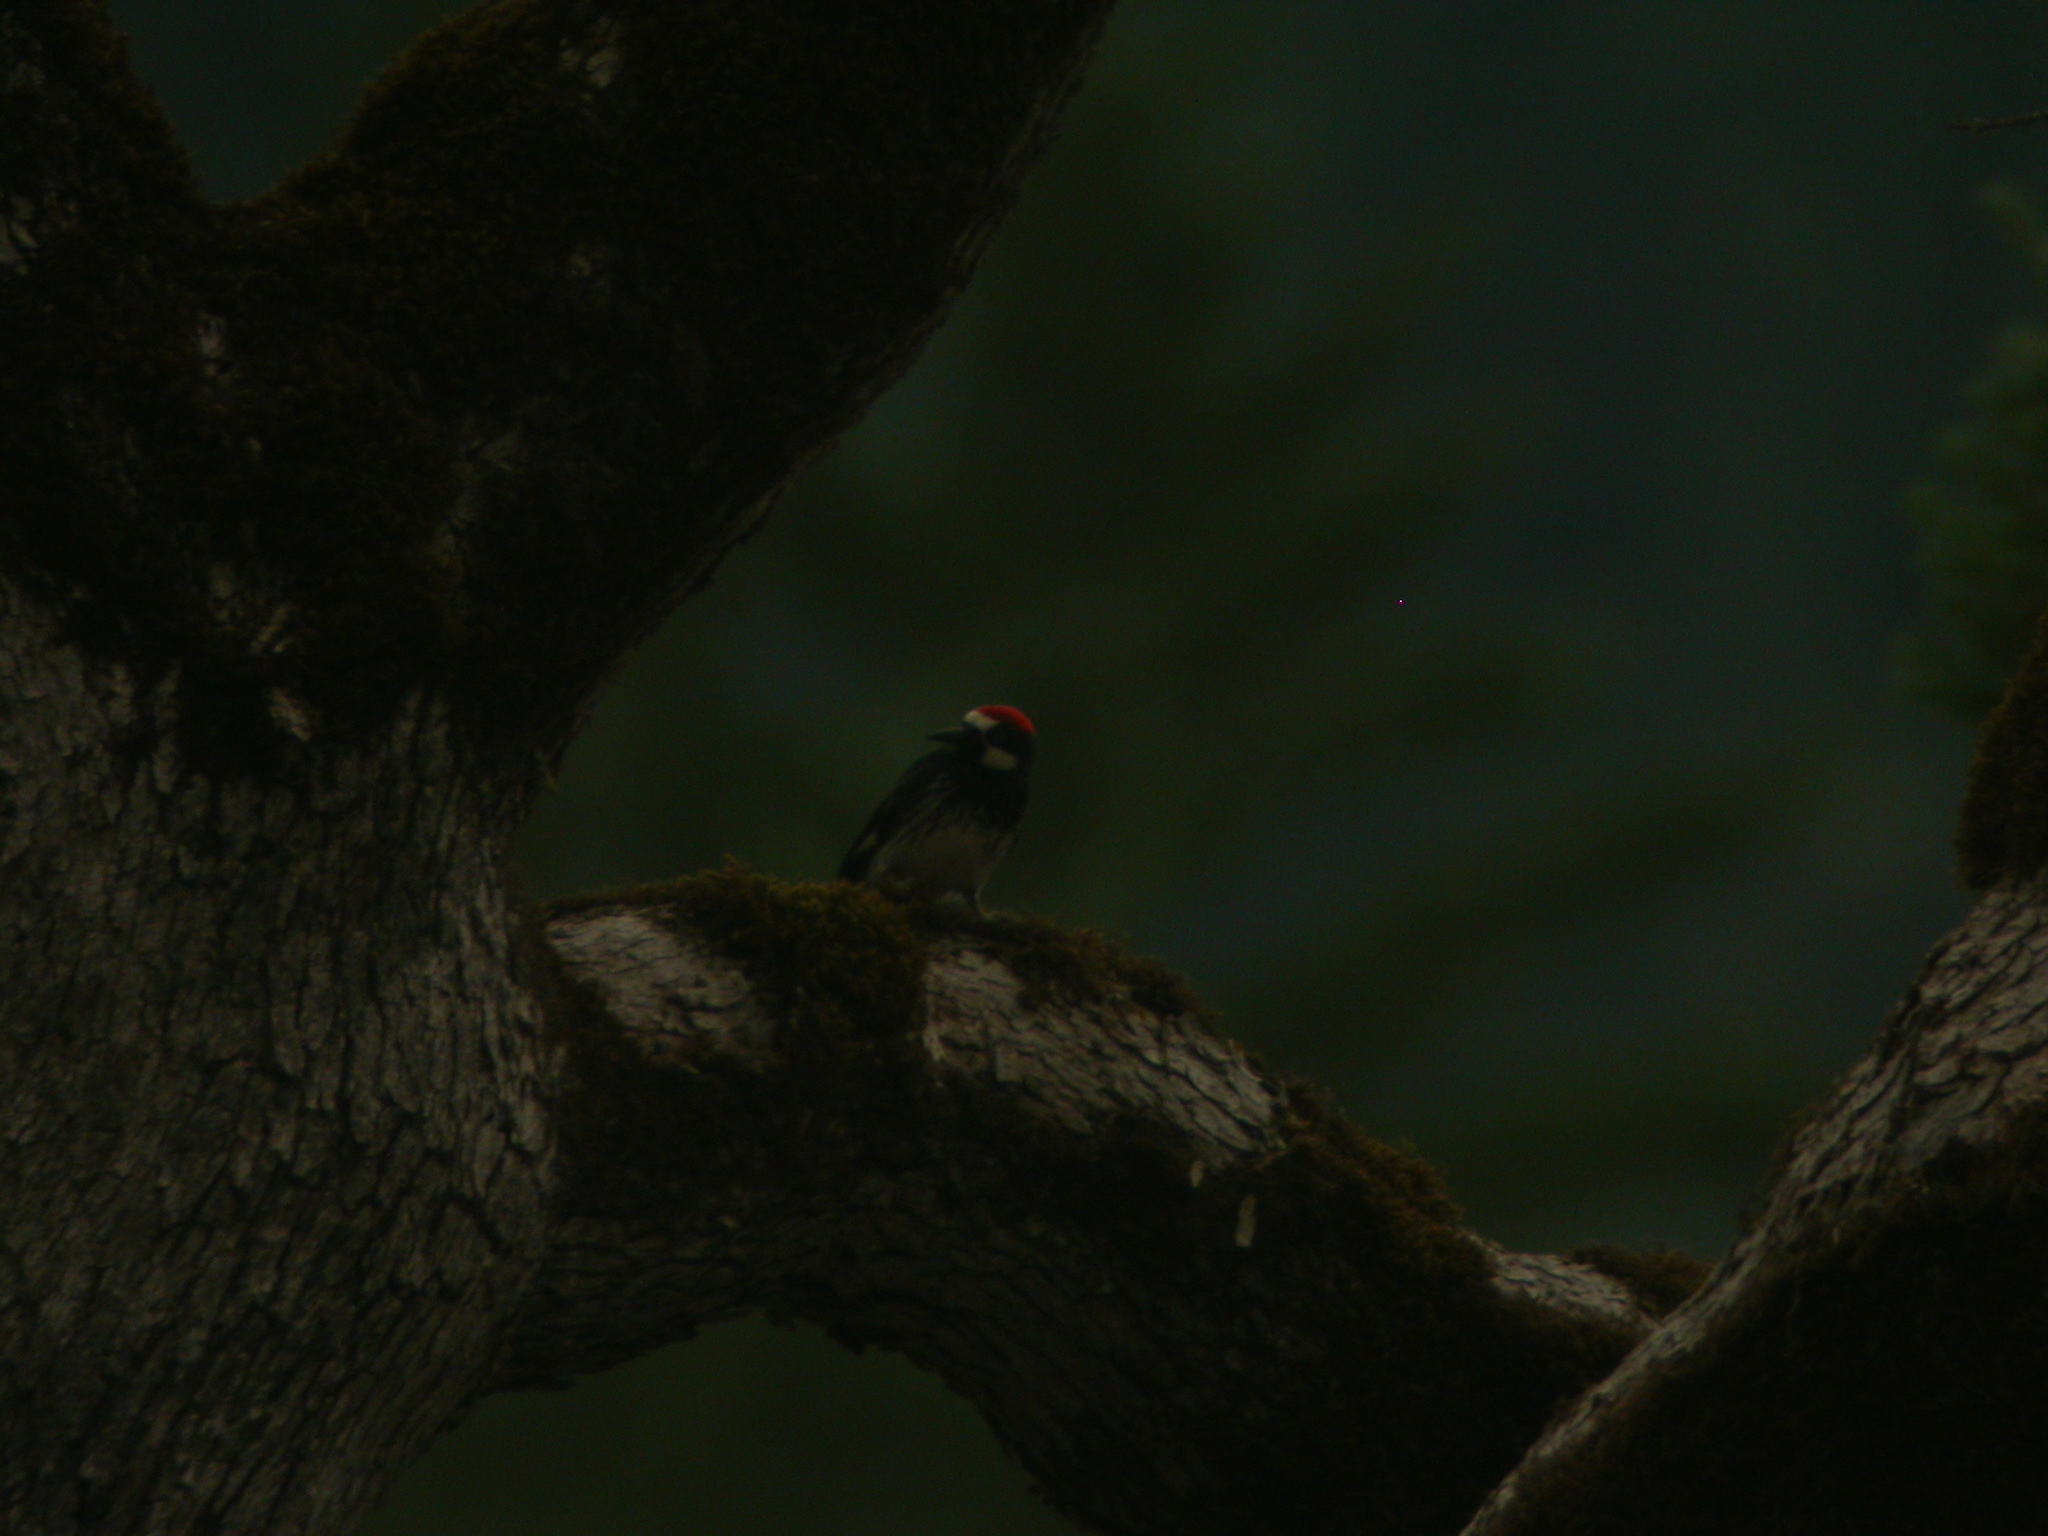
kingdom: Animalia
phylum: Chordata
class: Aves
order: Piciformes
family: Picidae
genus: Melanerpes
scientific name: Melanerpes formicivorus
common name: Acorn woodpecker
